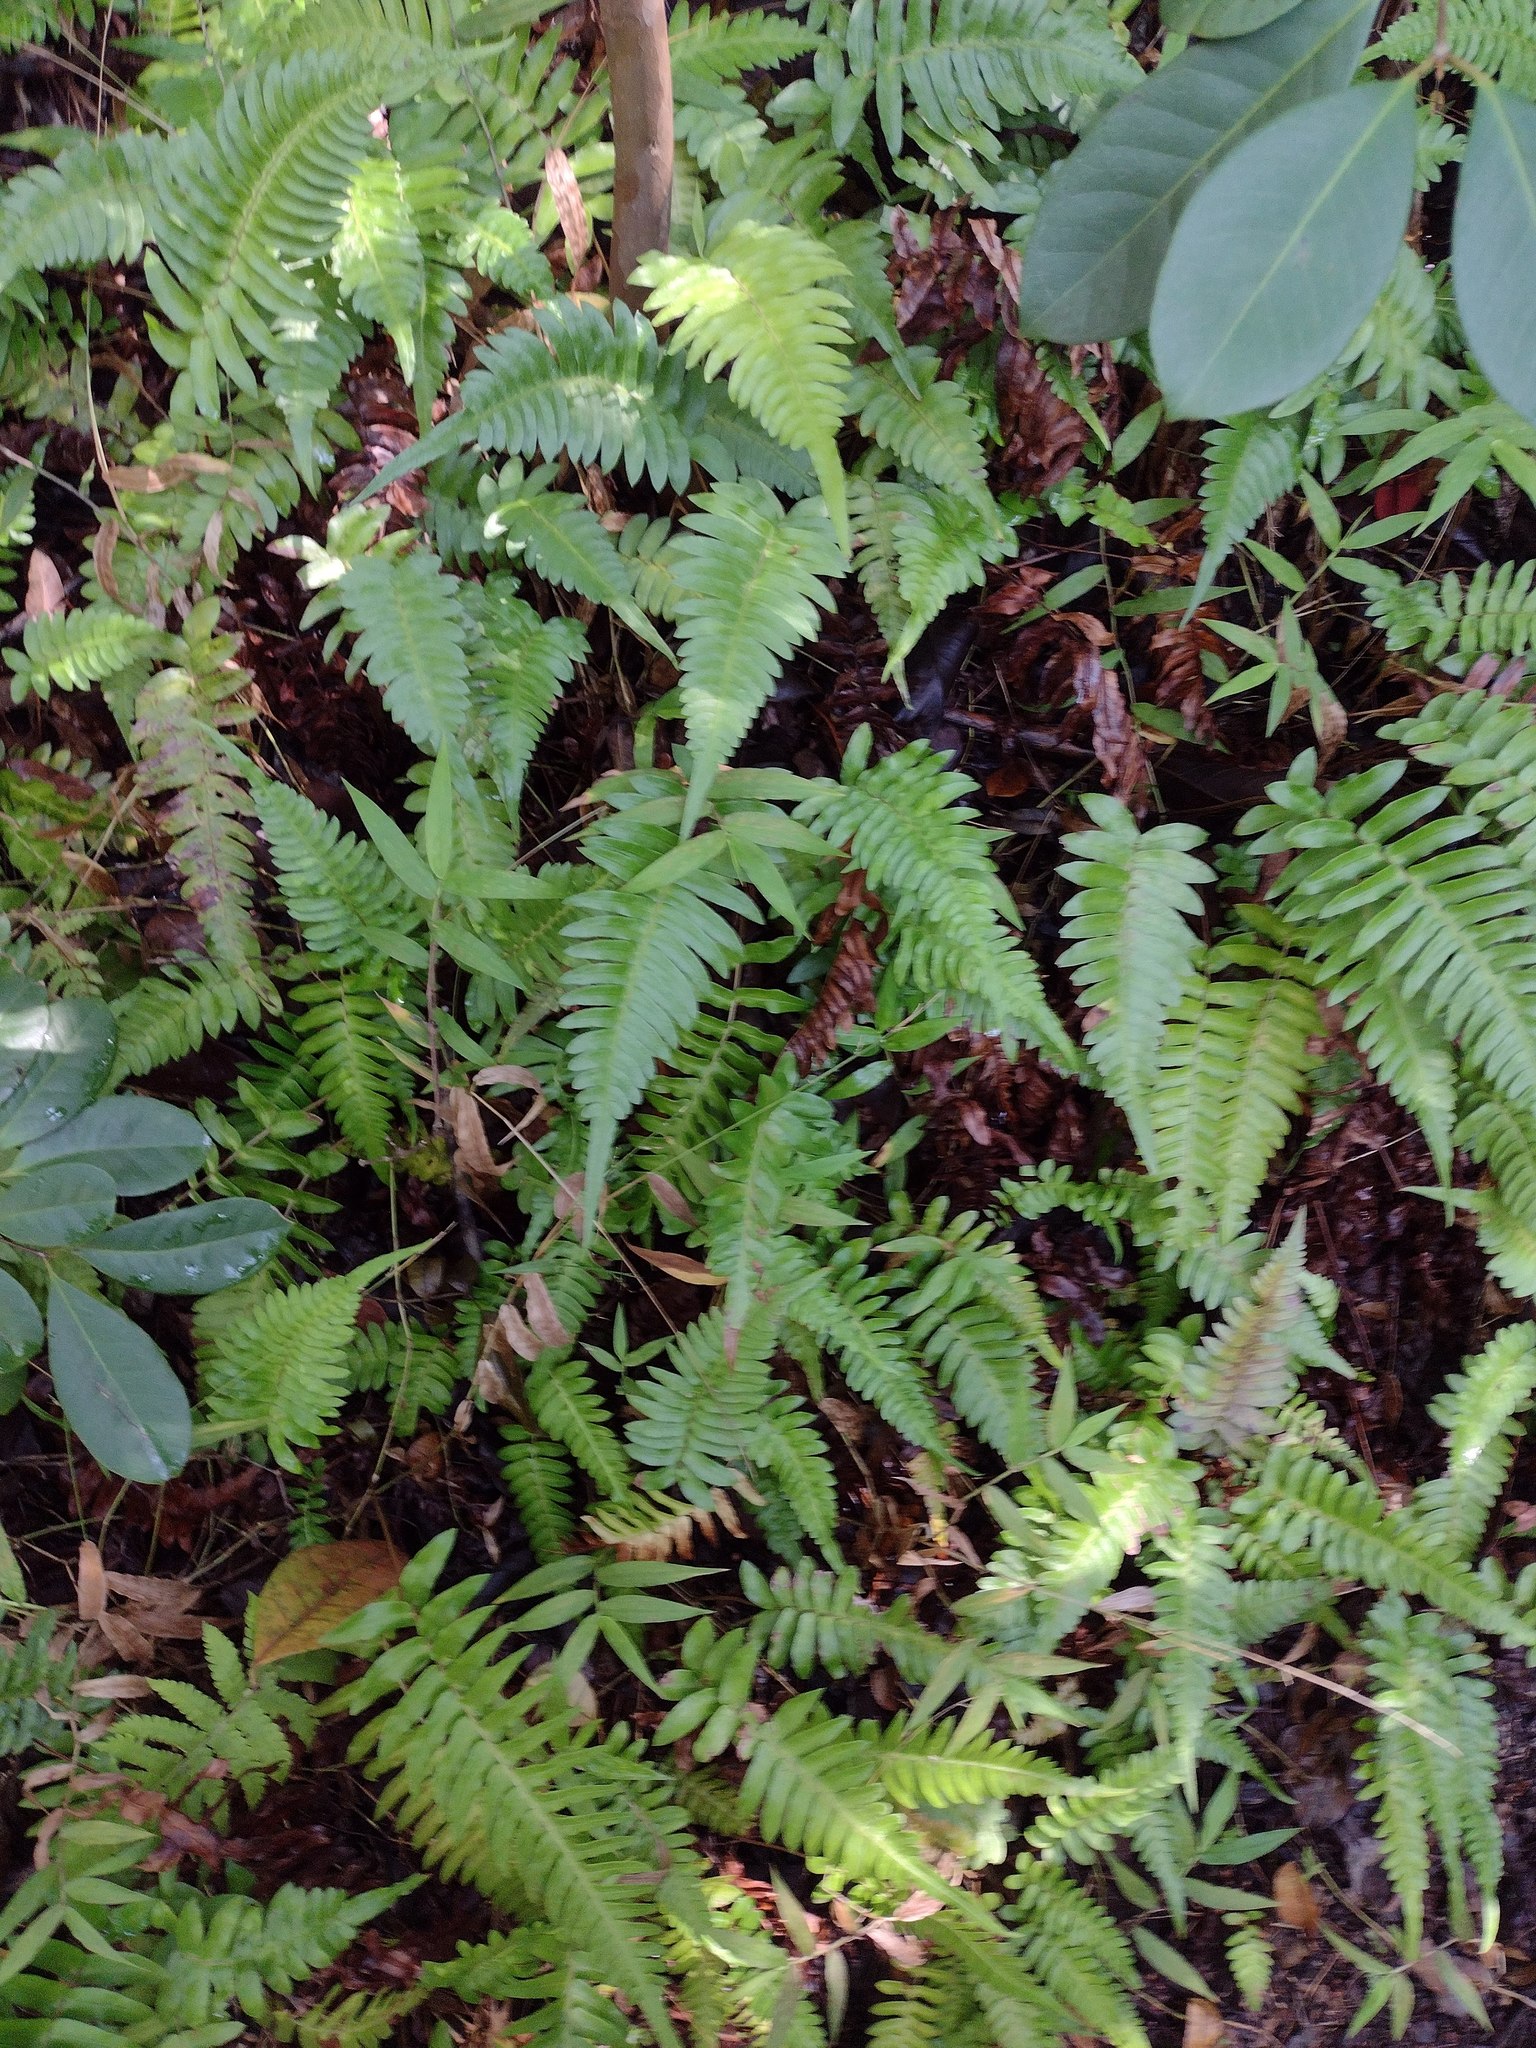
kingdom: Plantae
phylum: Tracheophyta
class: Polypodiopsida
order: Polypodiales
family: Blechnaceae
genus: Blechnum
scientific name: Blechnum appendiculatum
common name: Palm fern
